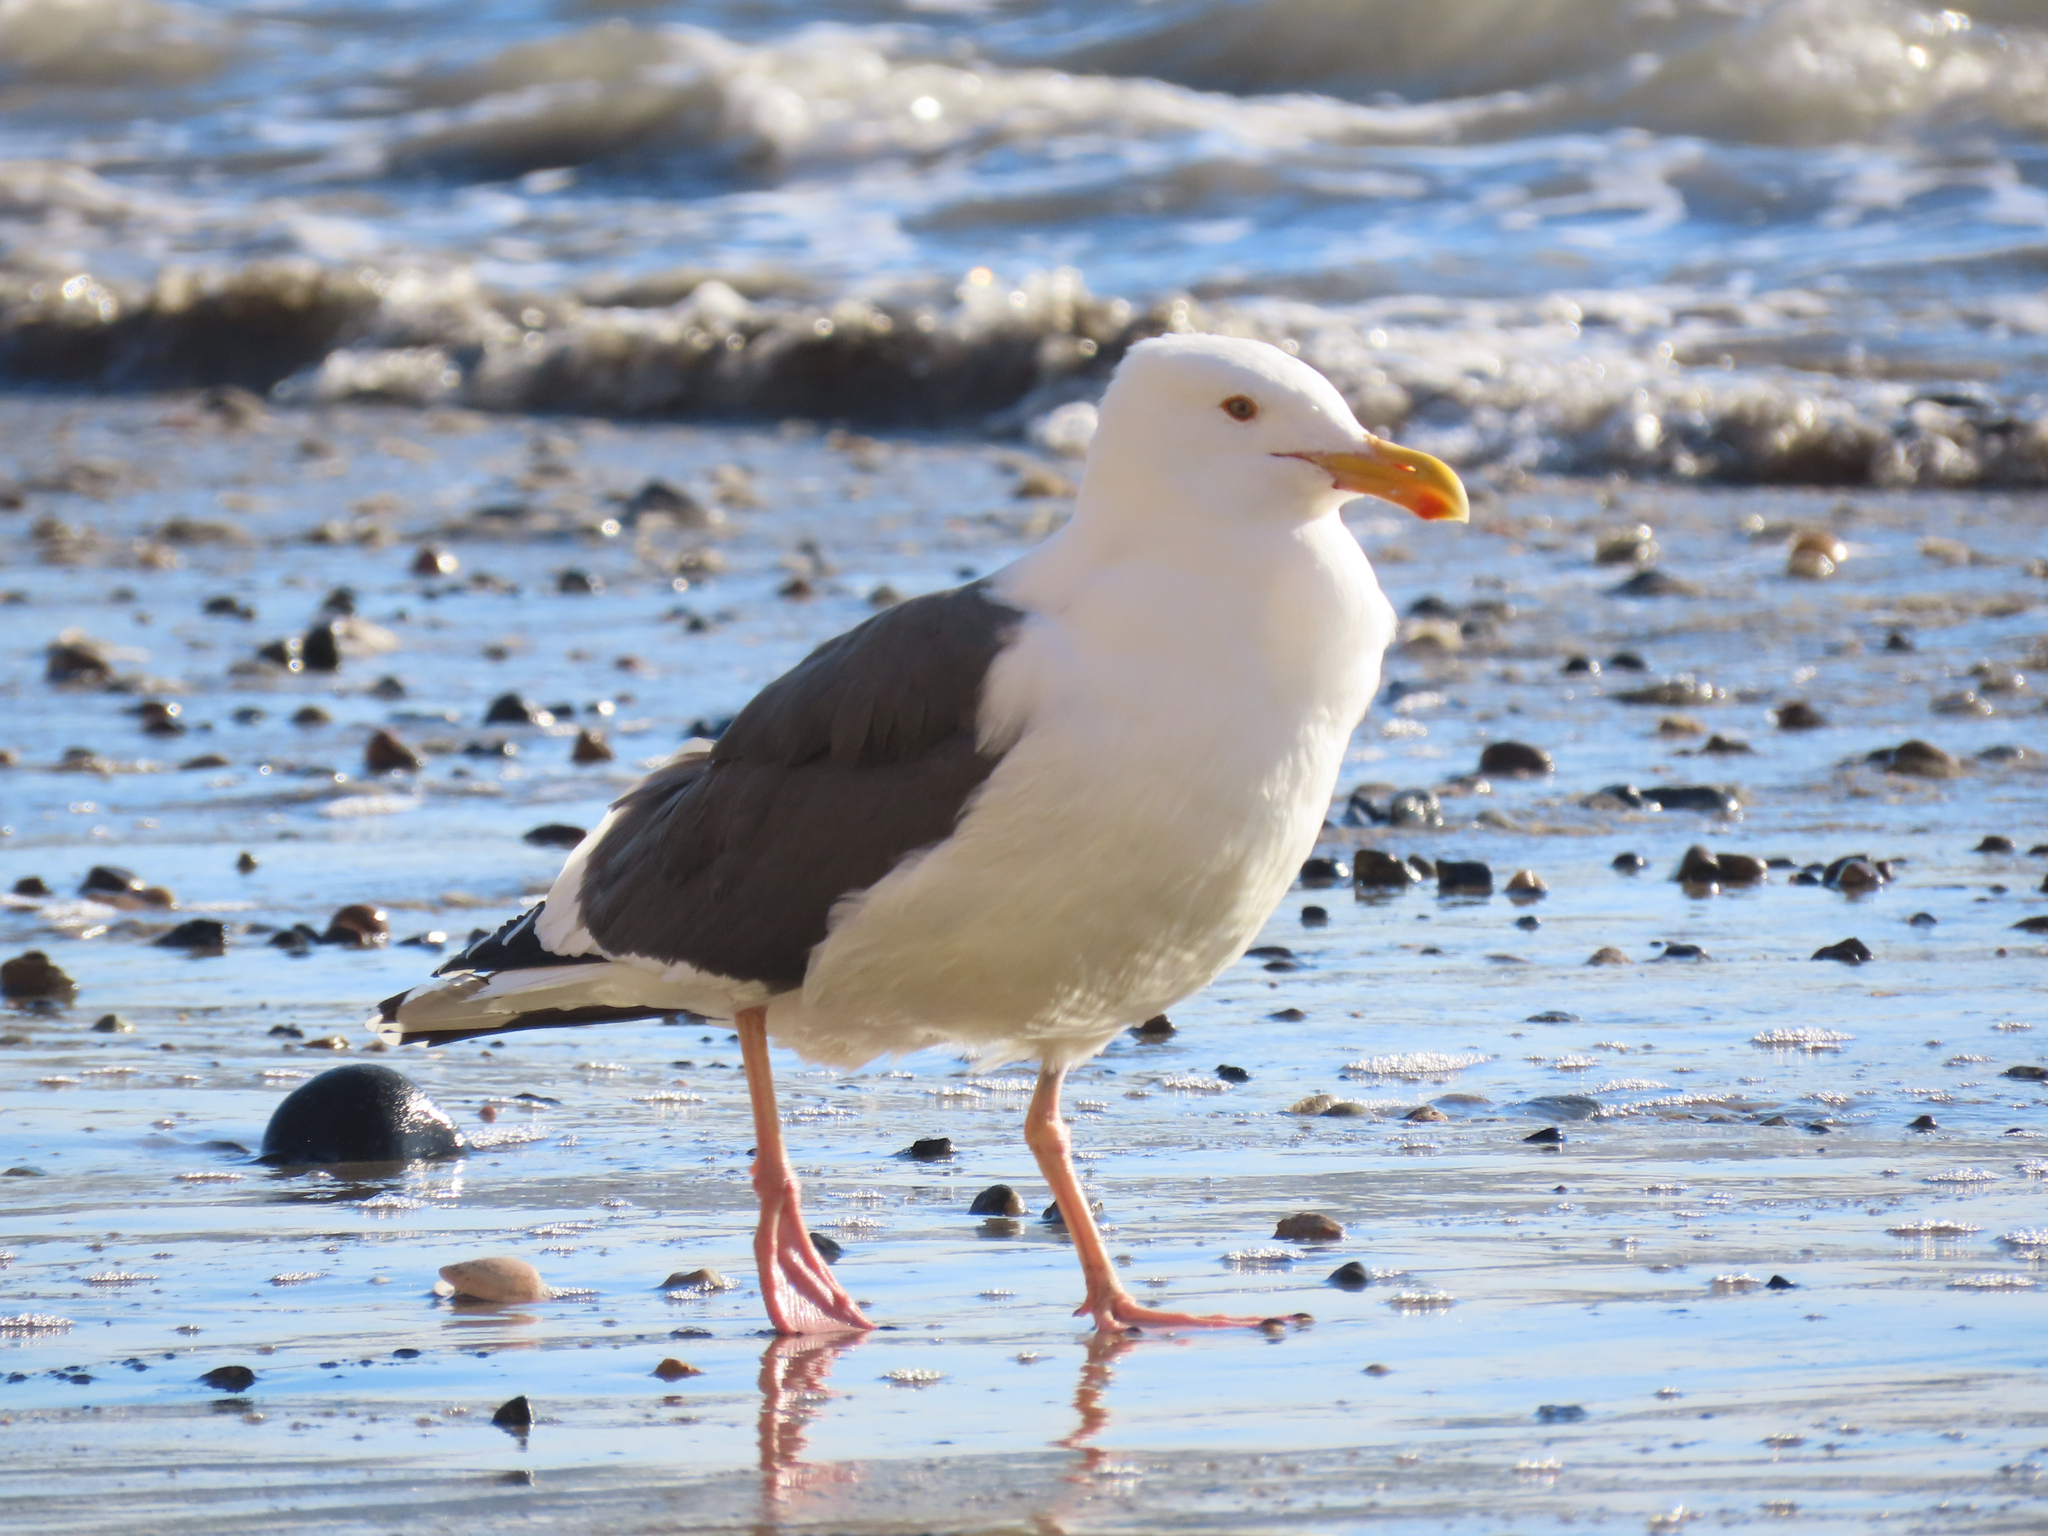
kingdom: Animalia
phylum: Chordata
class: Aves
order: Charadriiformes
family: Laridae
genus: Larus
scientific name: Larus occidentalis
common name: Western gull
